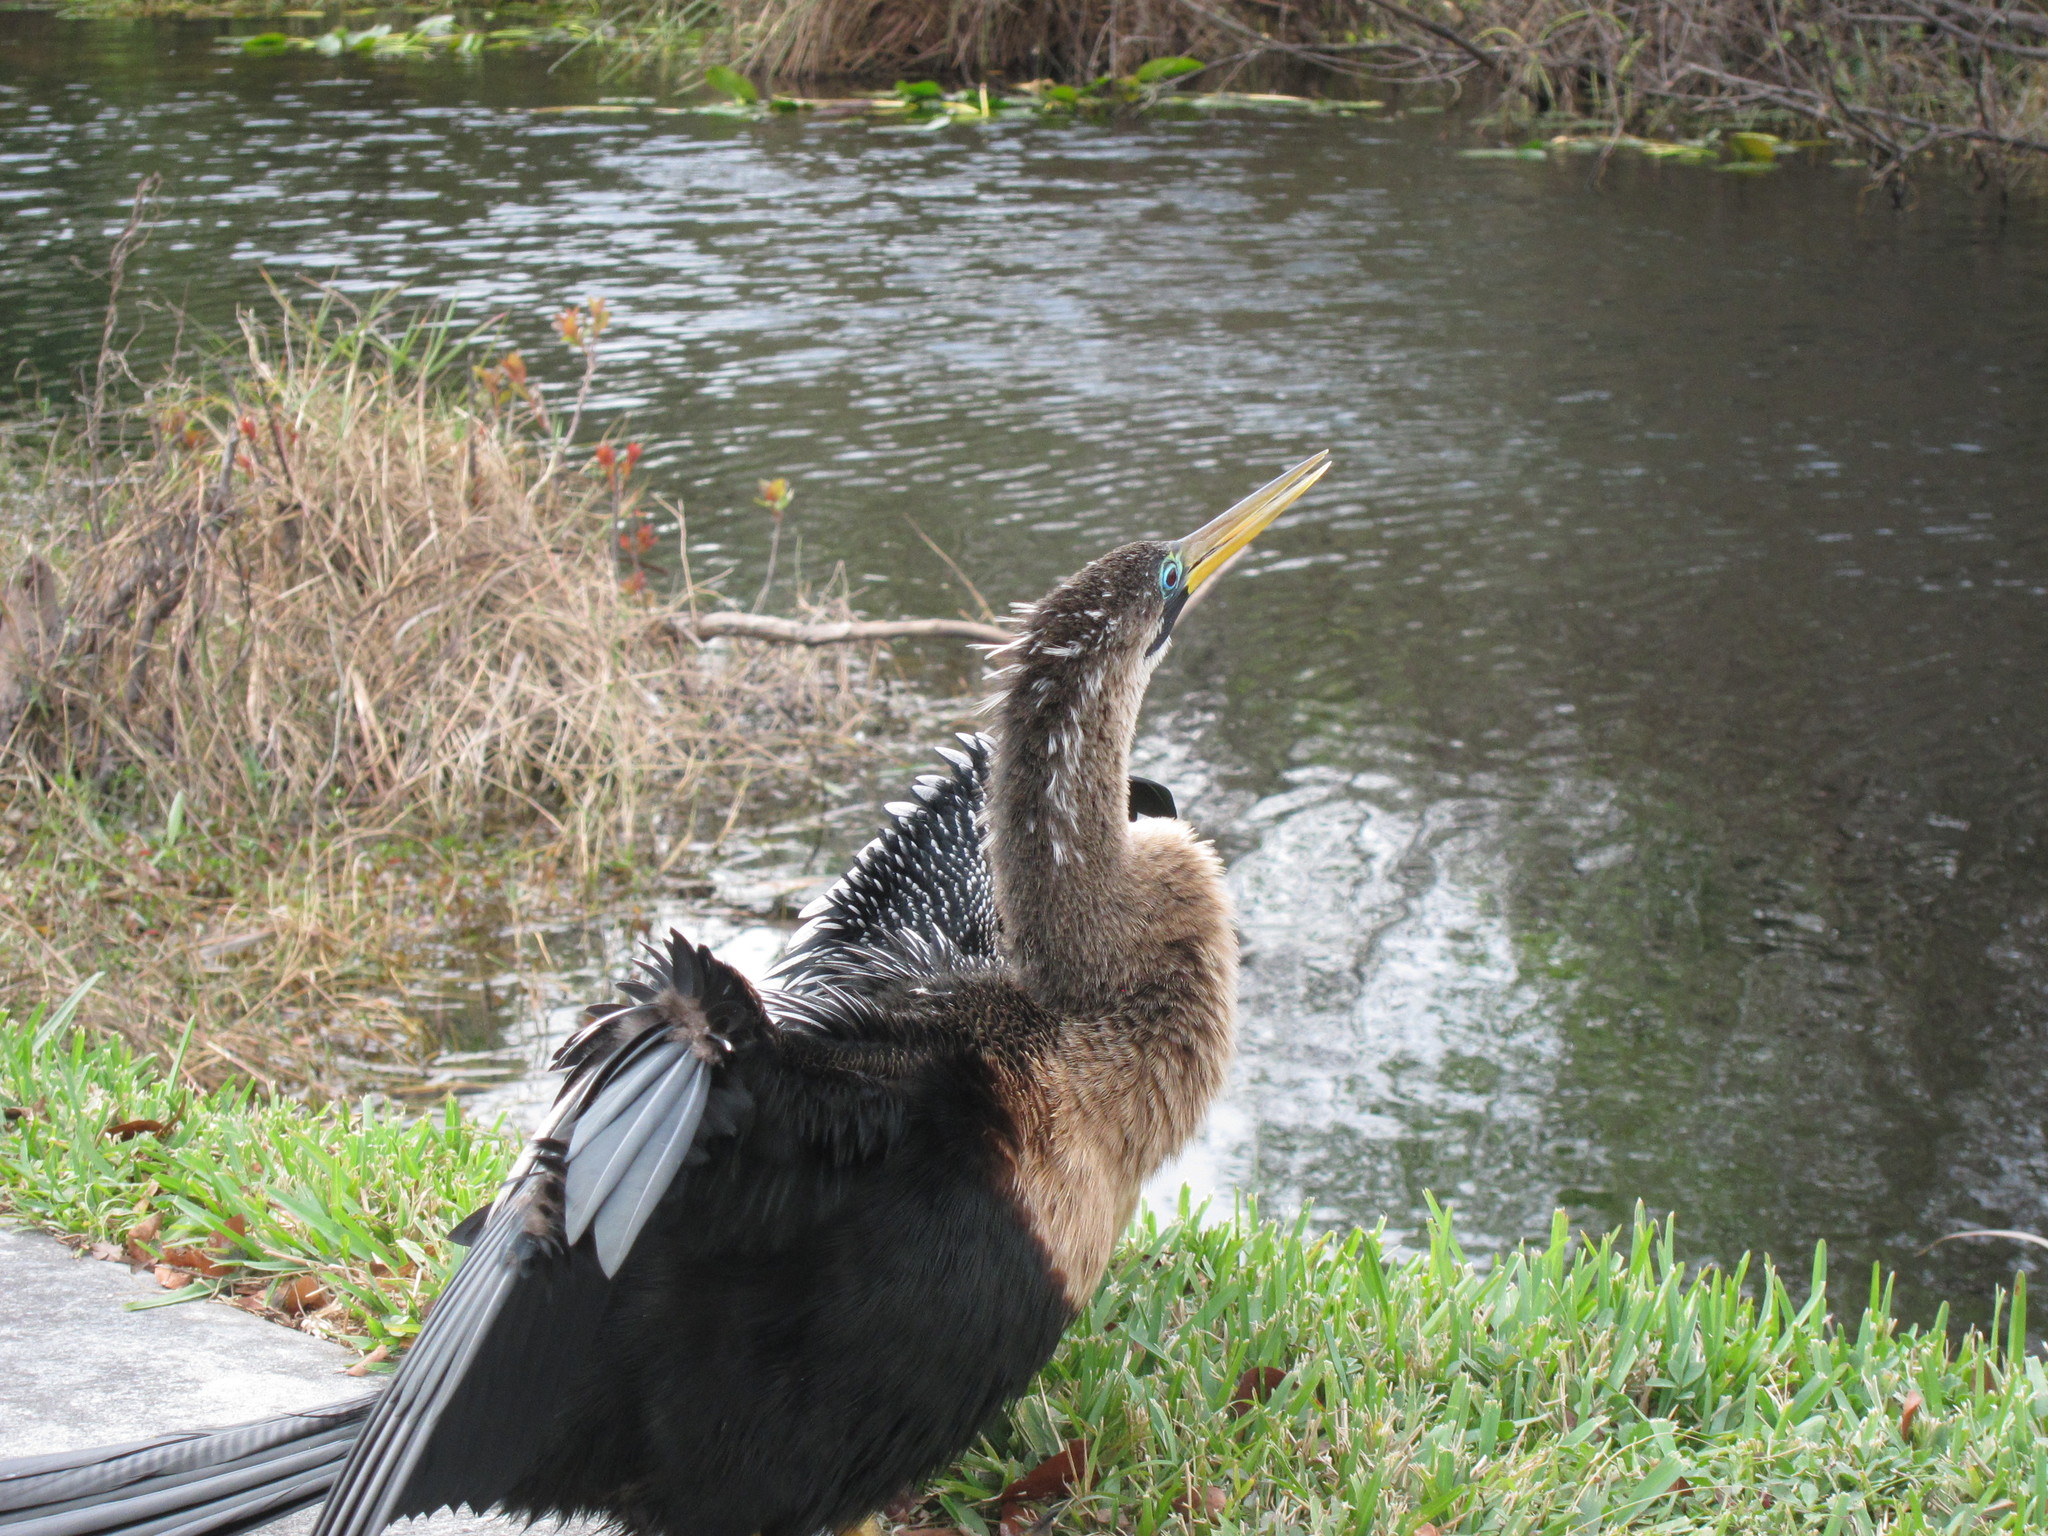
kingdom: Animalia
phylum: Chordata
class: Aves
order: Suliformes
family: Anhingidae
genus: Anhinga
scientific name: Anhinga anhinga
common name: Anhinga
